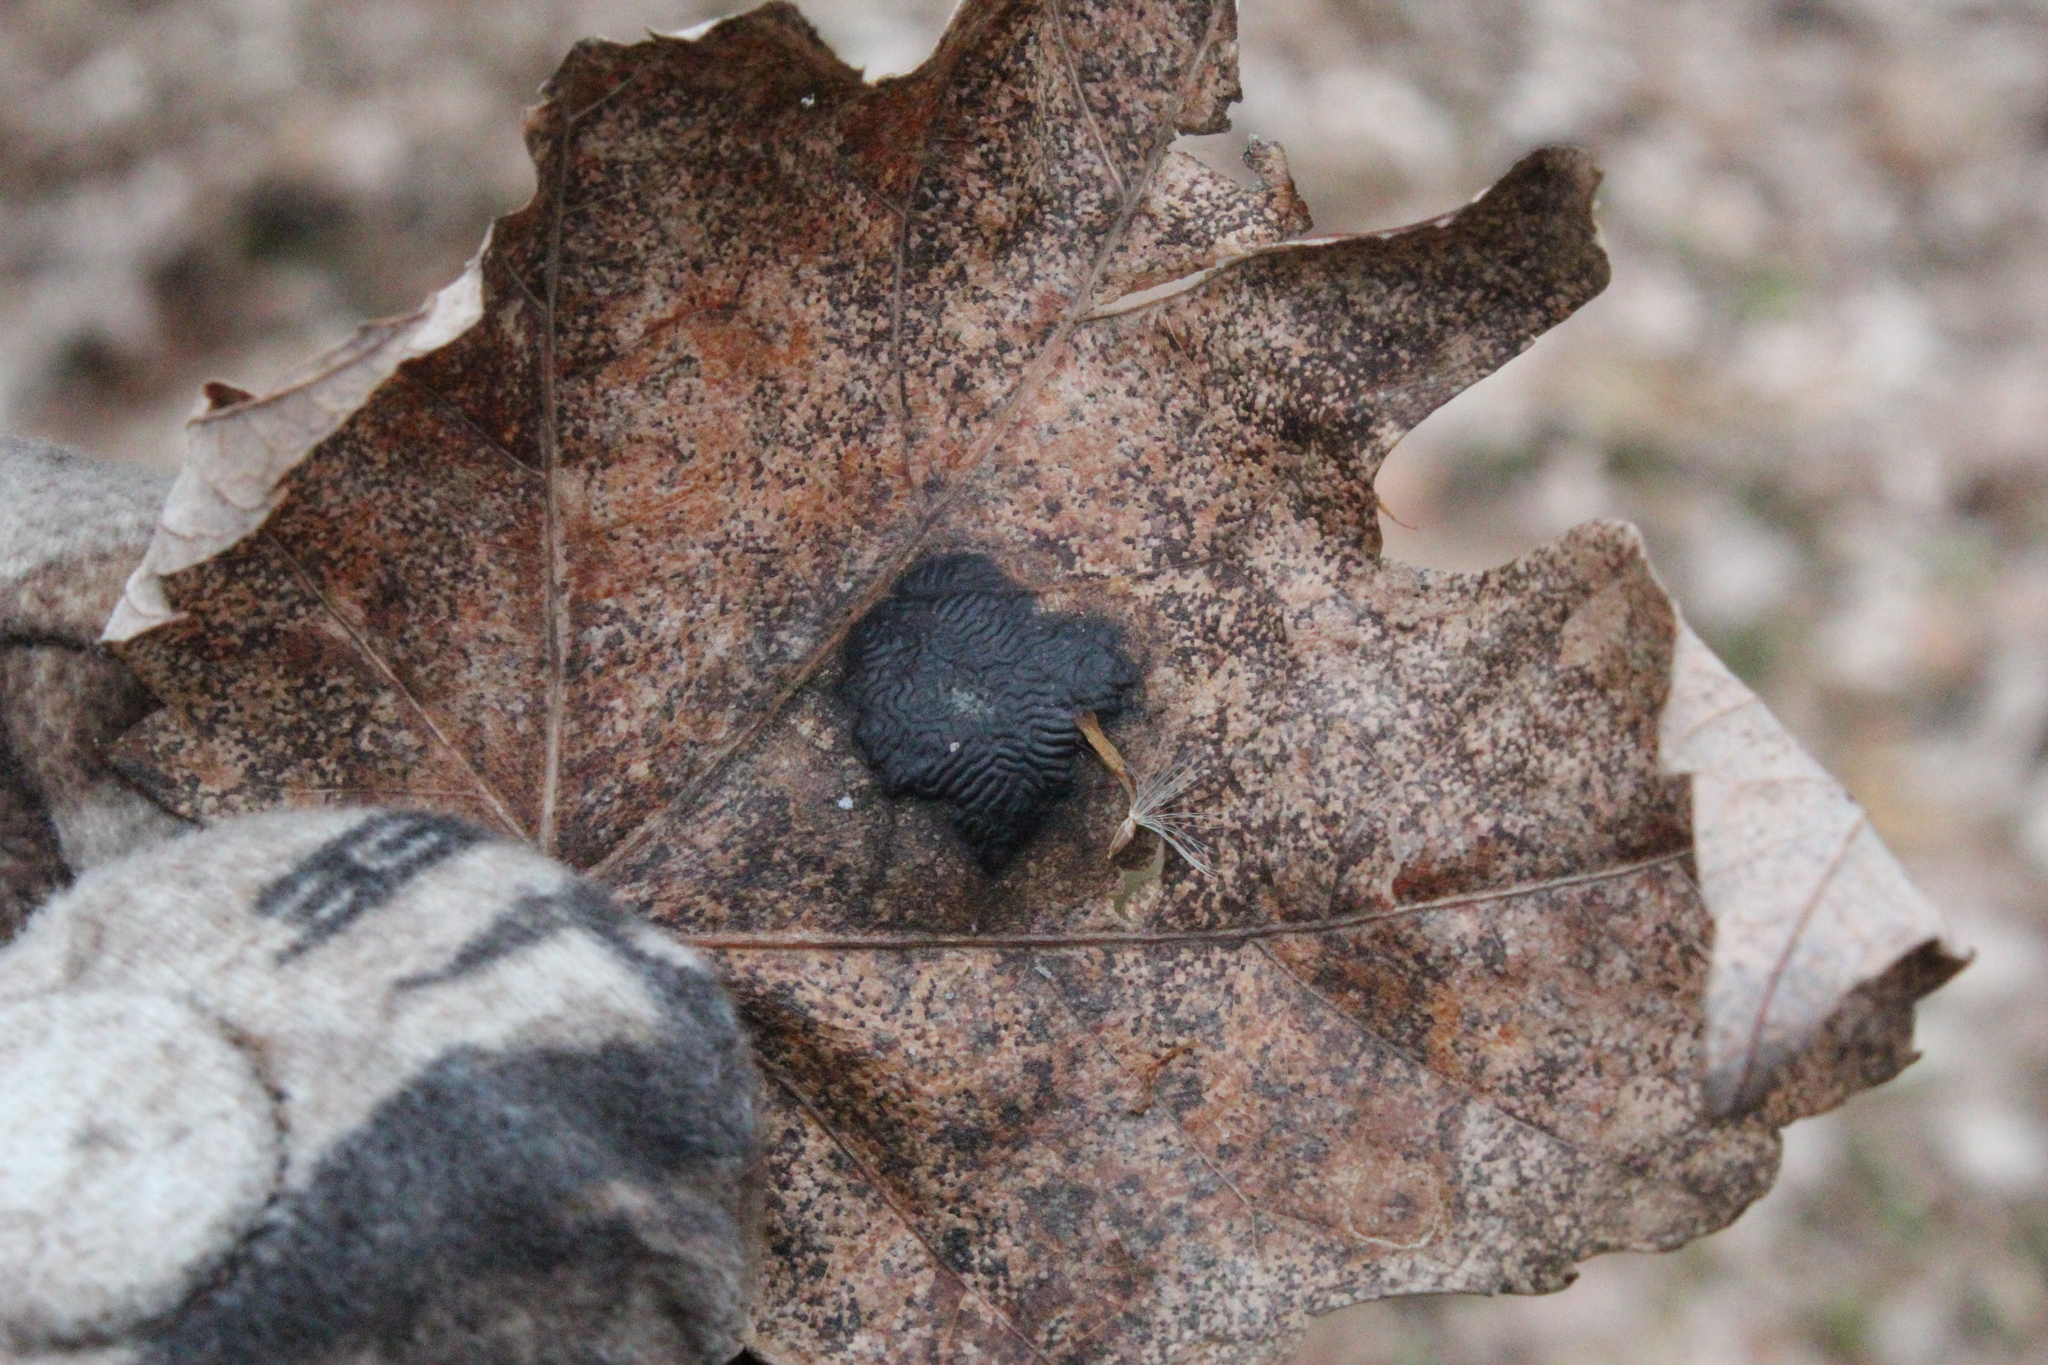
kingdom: Fungi
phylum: Ascomycota
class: Leotiomycetes
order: Rhytismatales
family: Rhytismataceae
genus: Rhytisma
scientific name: Rhytisma americanum
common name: American tar spot
